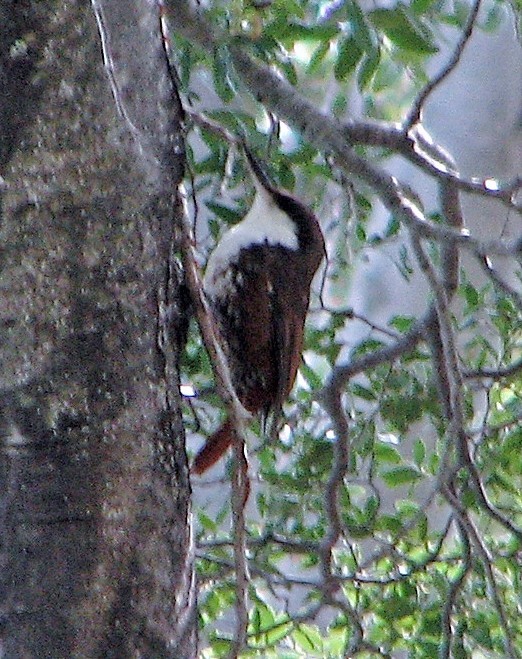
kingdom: Animalia
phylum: Chordata
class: Aves
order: Passeriformes
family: Furnariidae
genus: Pygarrhichas
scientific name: Pygarrhichas albogularis
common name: White-throated treerunner
